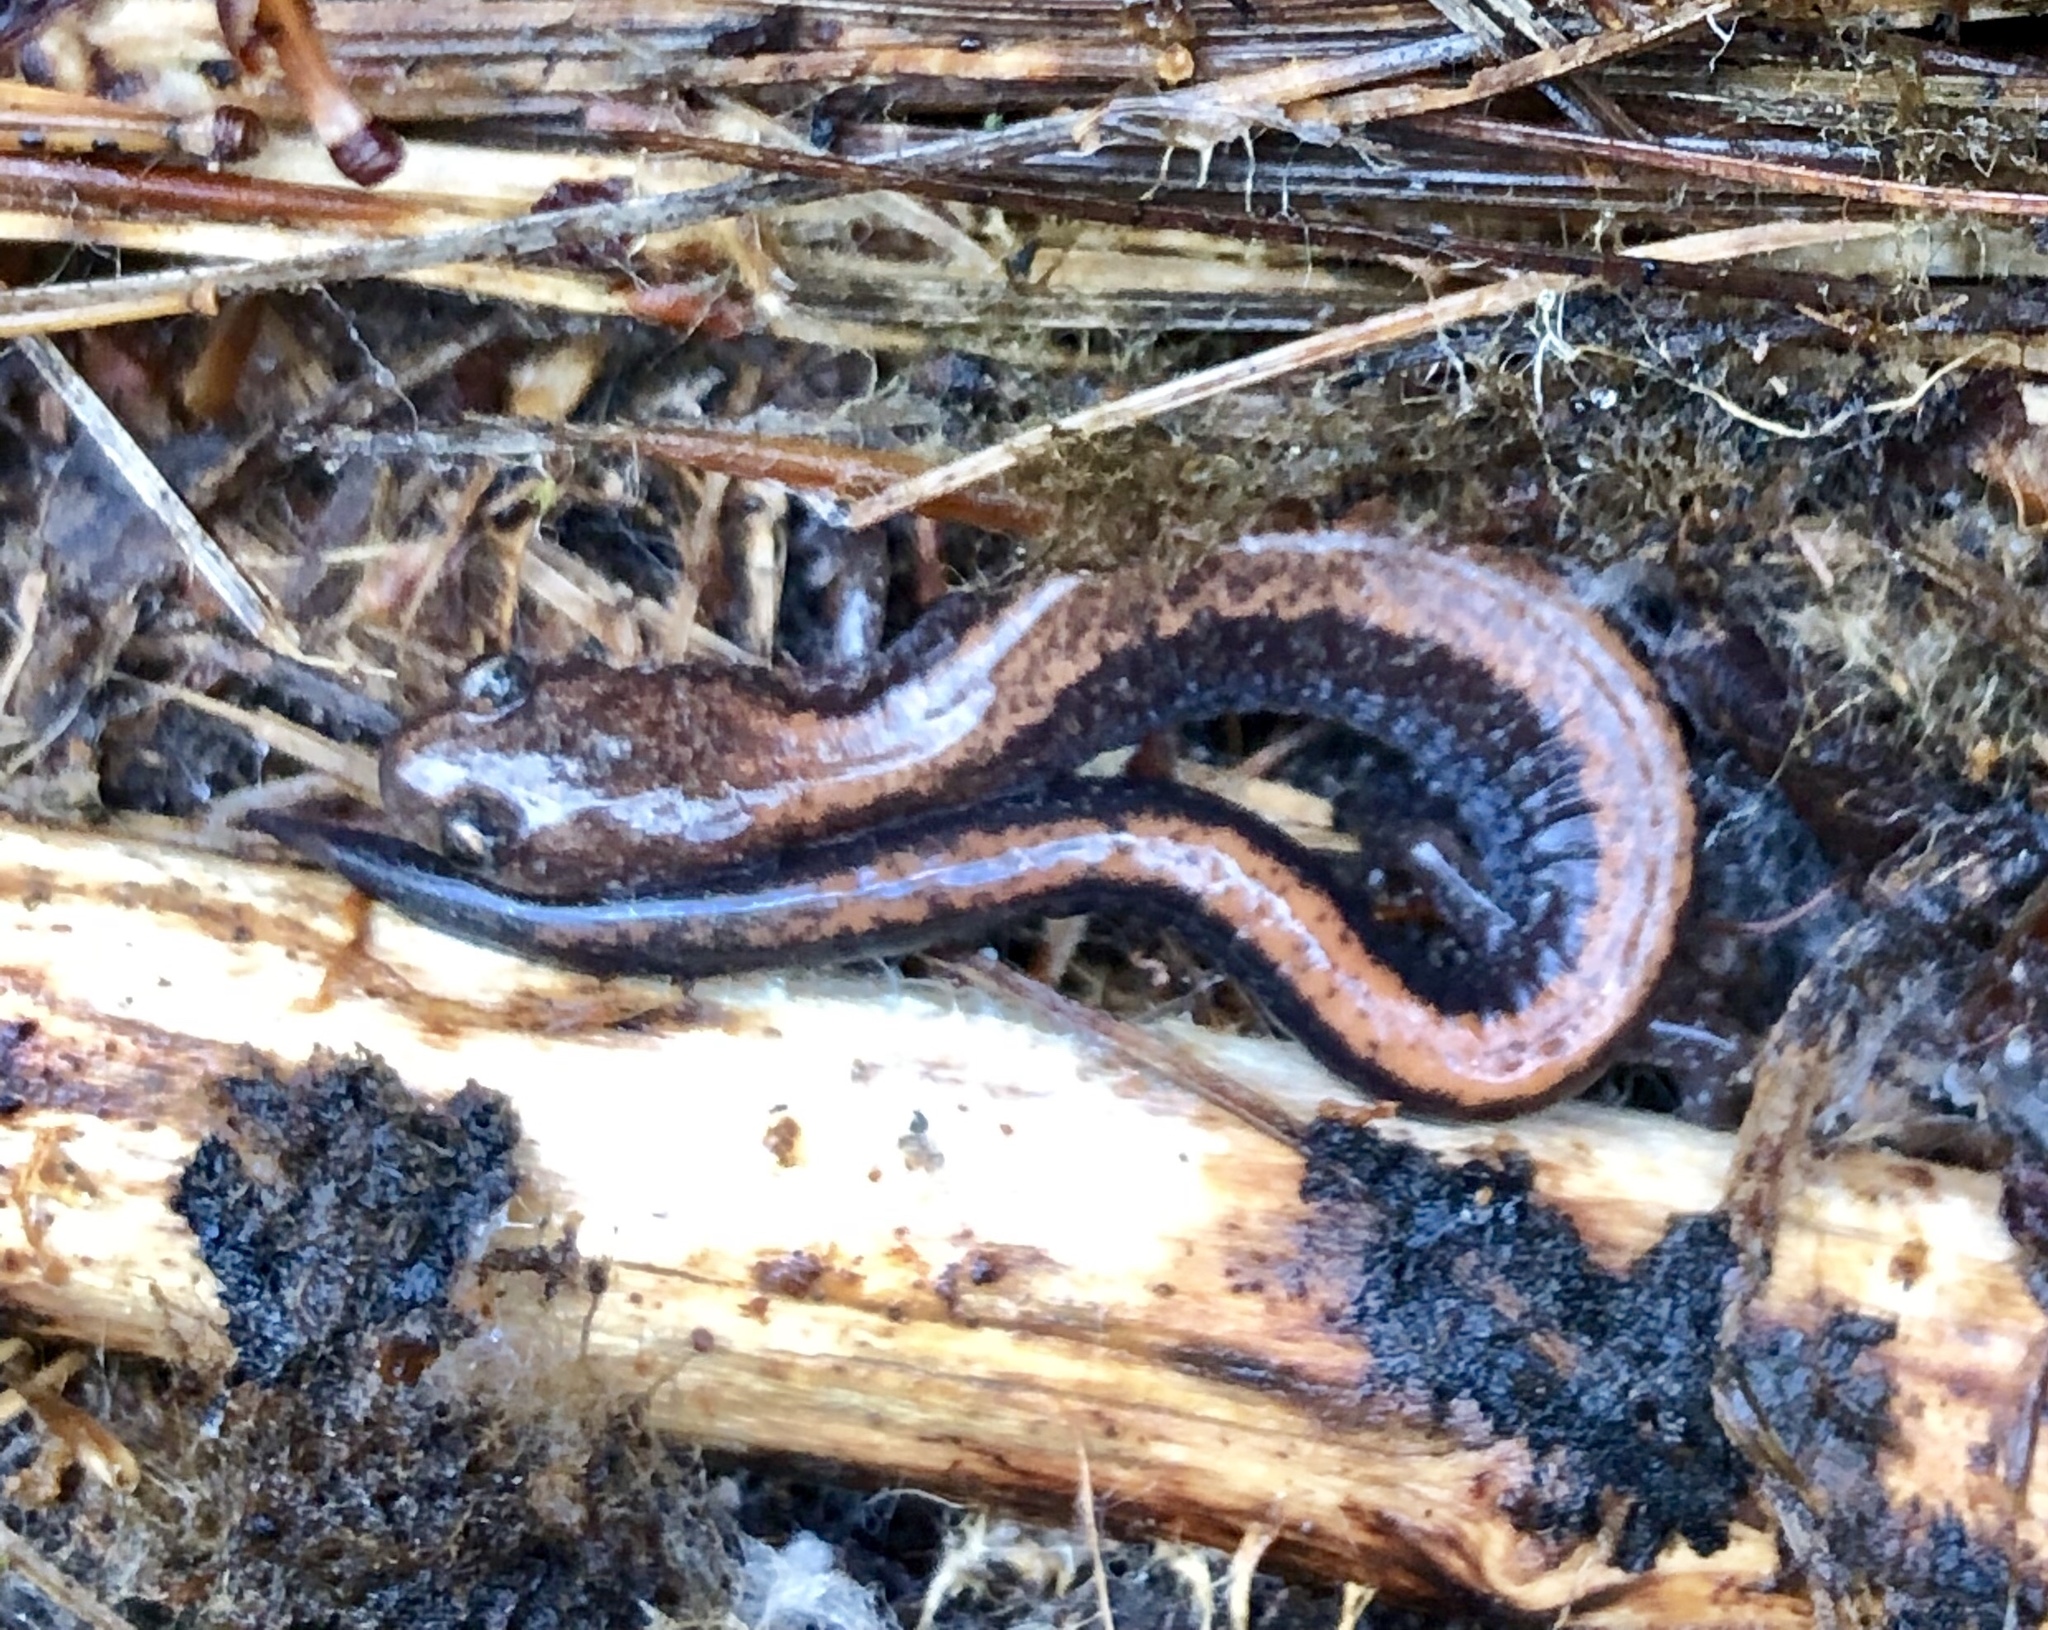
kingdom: Animalia
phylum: Chordata
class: Amphibia
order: Caudata
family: Plethodontidae
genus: Plethodon
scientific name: Plethodon cinereus
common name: Redback salamander
